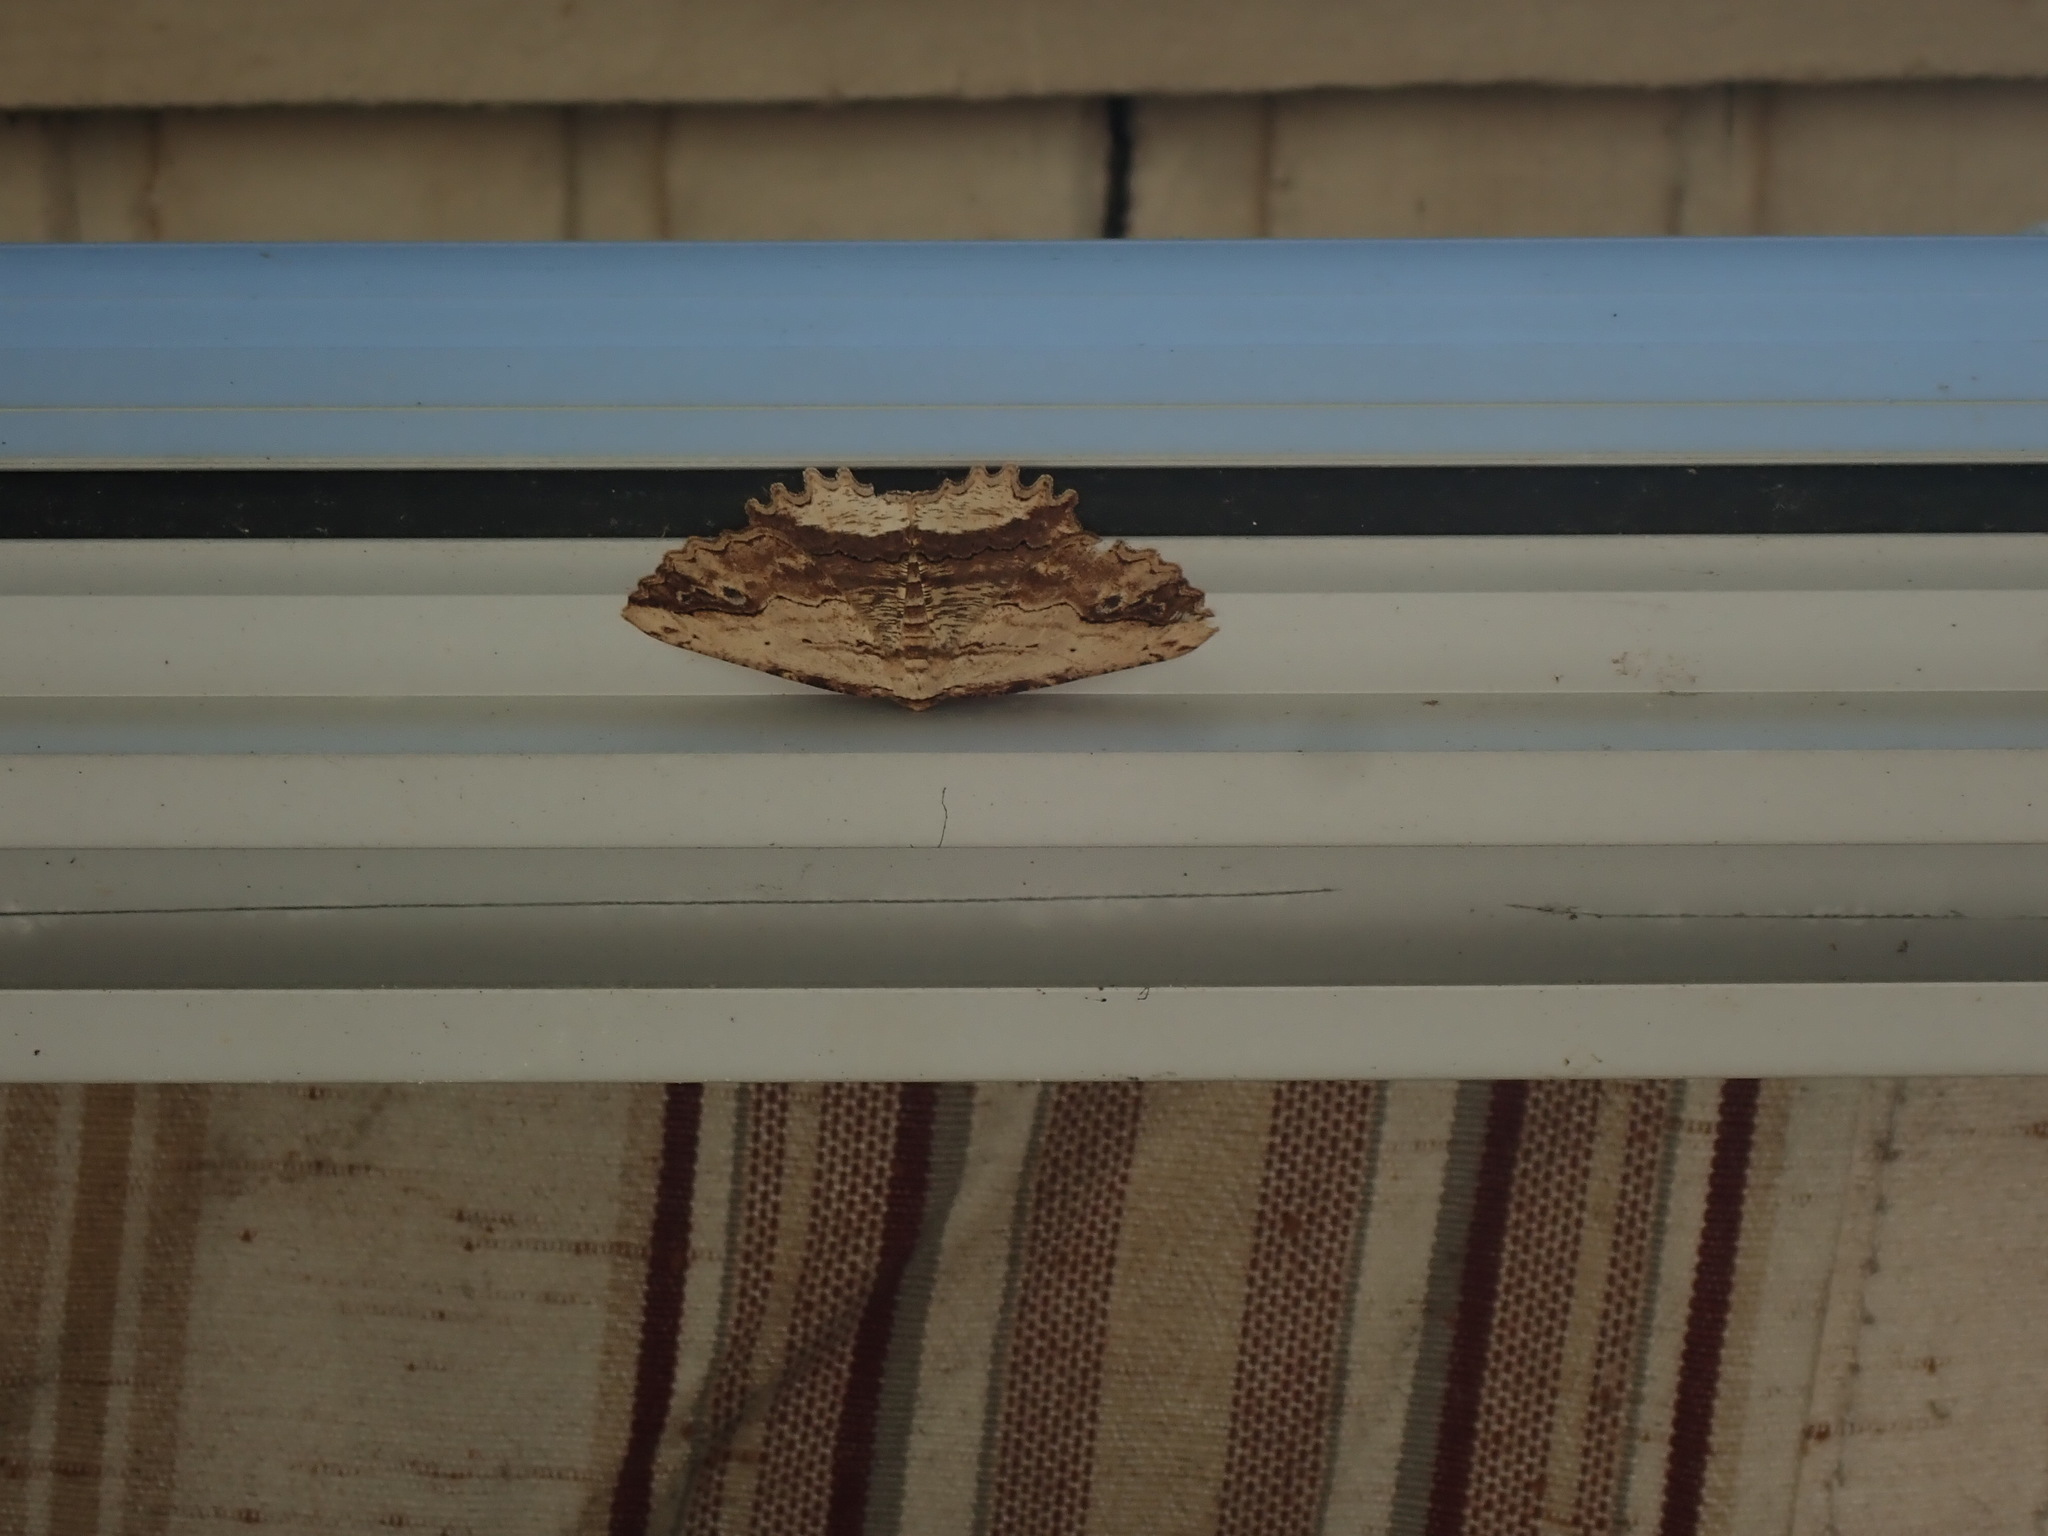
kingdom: Animalia
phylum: Arthropoda
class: Insecta
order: Lepidoptera
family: Geometridae
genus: Menophra
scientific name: Menophra abruptaria
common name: Waved umber
